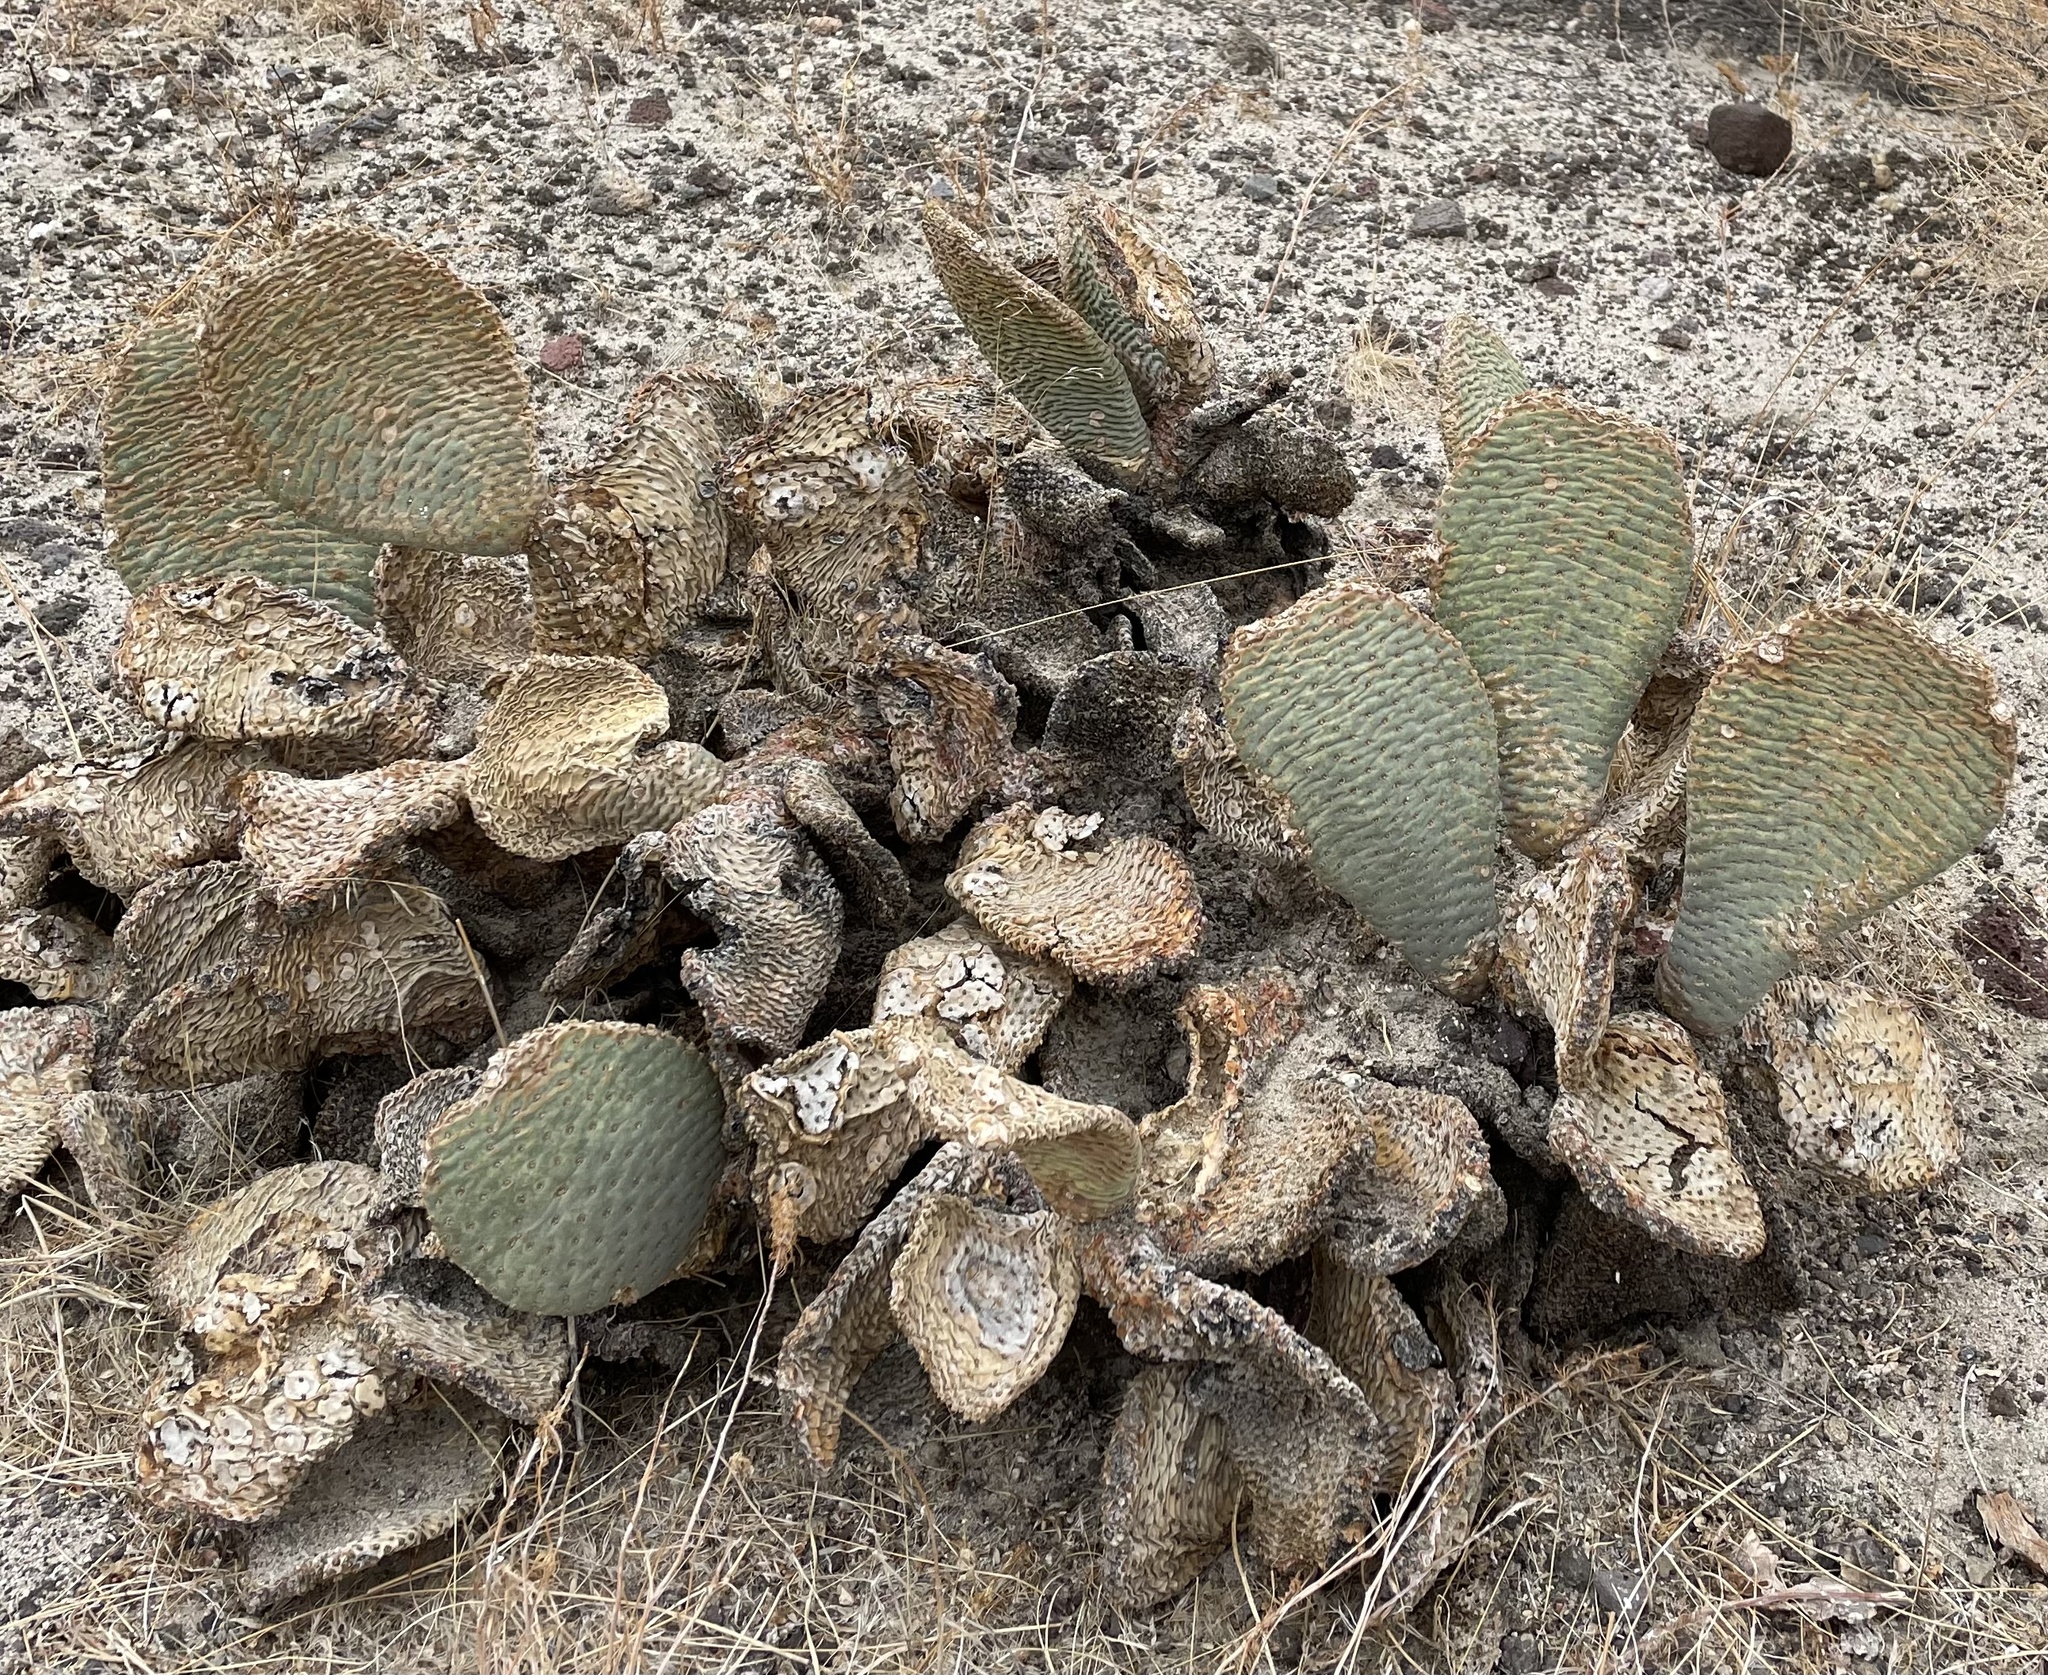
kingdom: Plantae
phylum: Tracheophyta
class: Magnoliopsida
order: Caryophyllales
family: Cactaceae
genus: Opuntia
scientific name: Opuntia basilaris
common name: Beavertail prickly-pear
